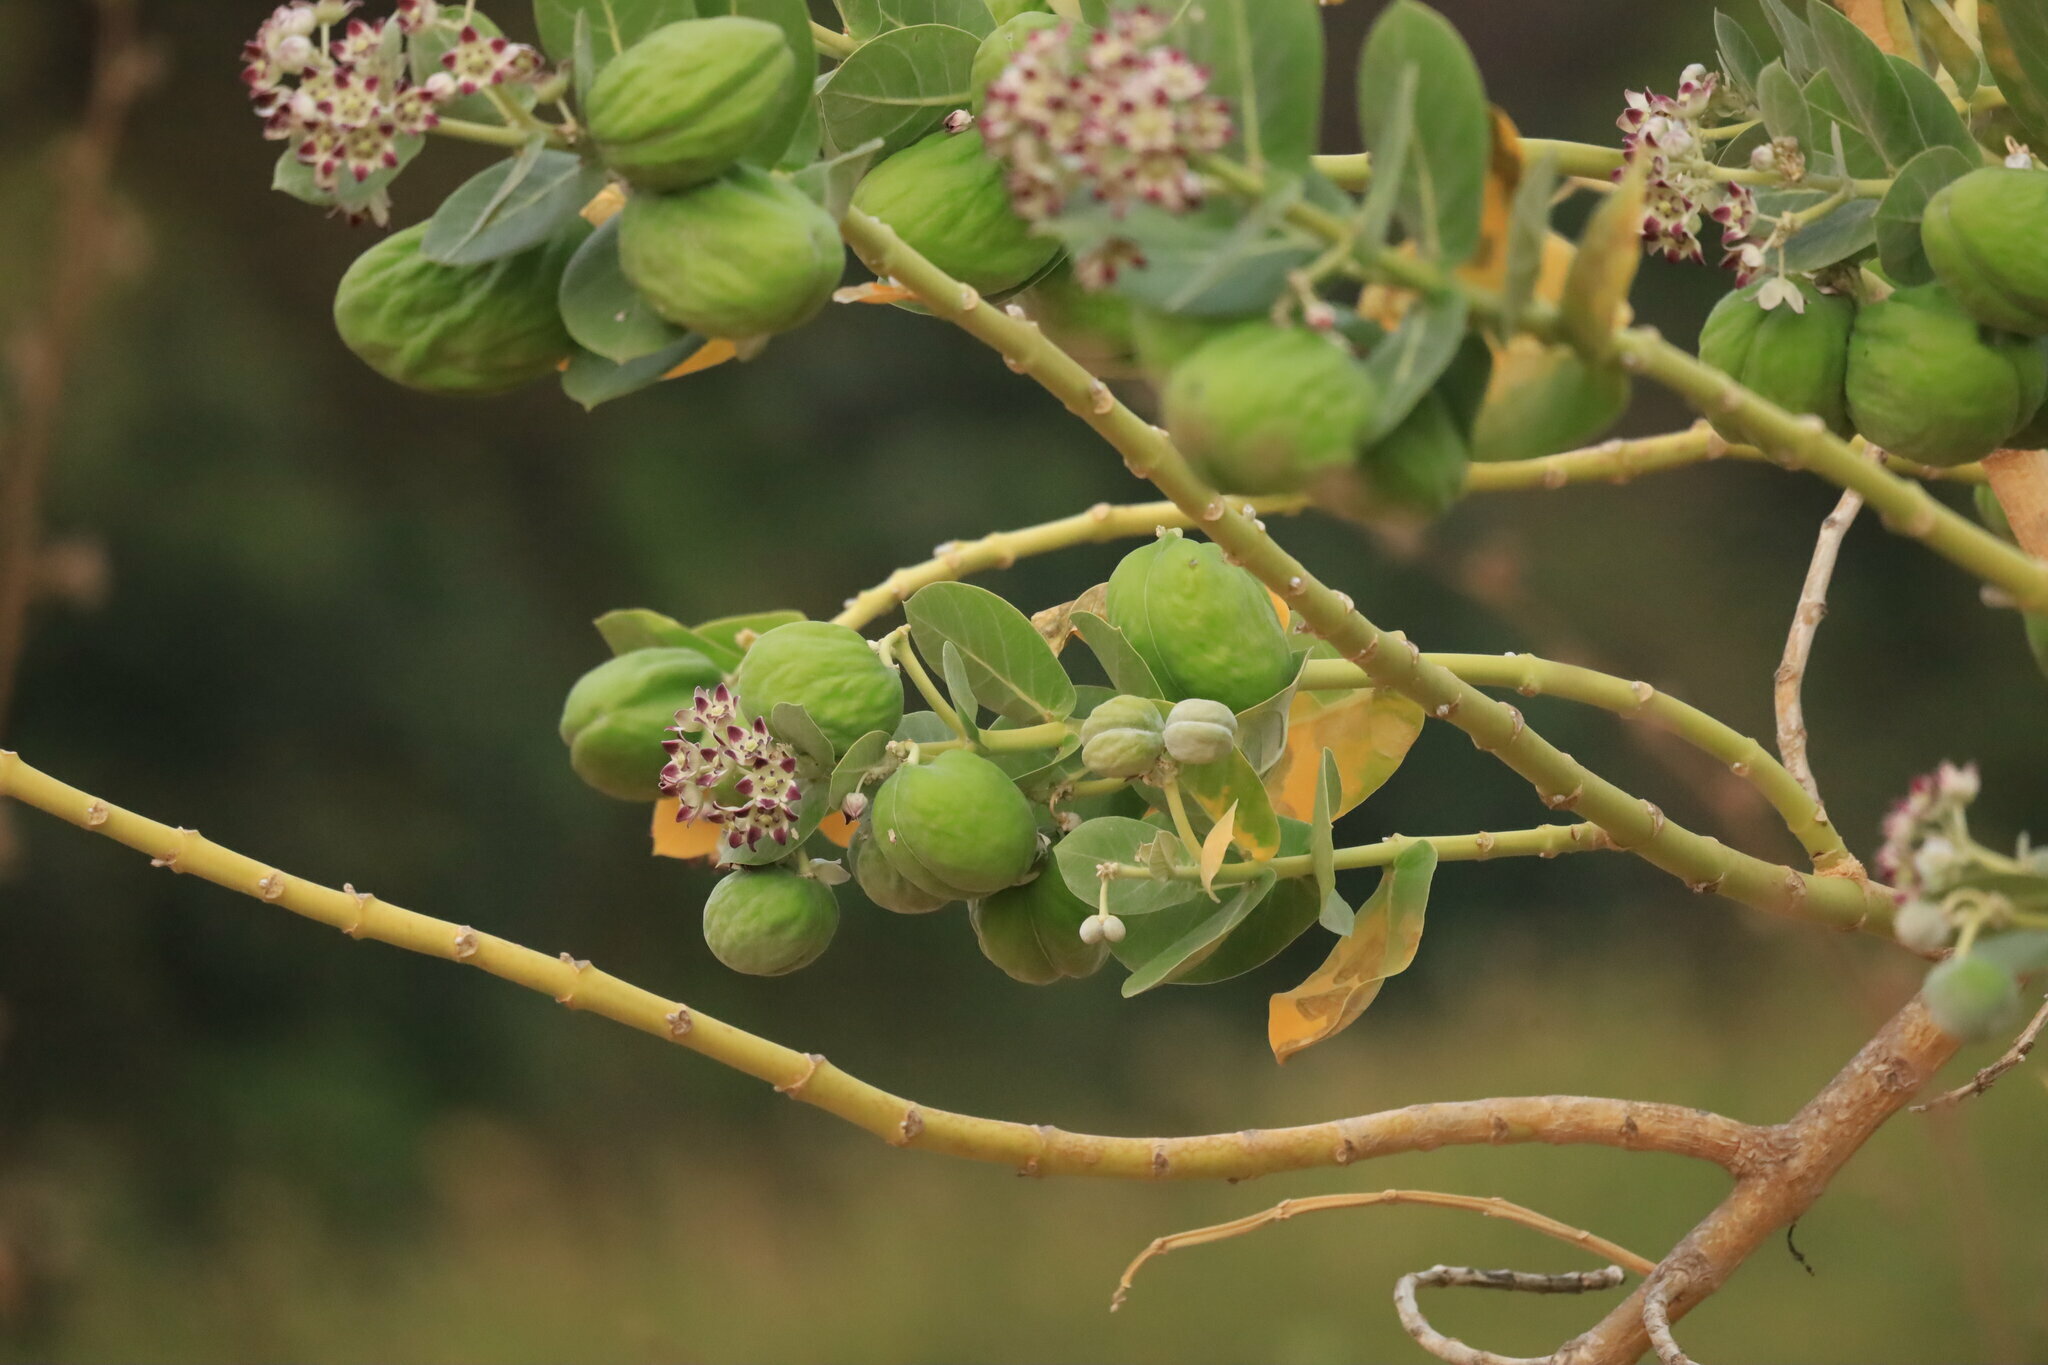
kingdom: Plantae
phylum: Tracheophyta
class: Magnoliopsida
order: Gentianales
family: Apocynaceae
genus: Calotropis
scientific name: Calotropis procera
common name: Roostertree
